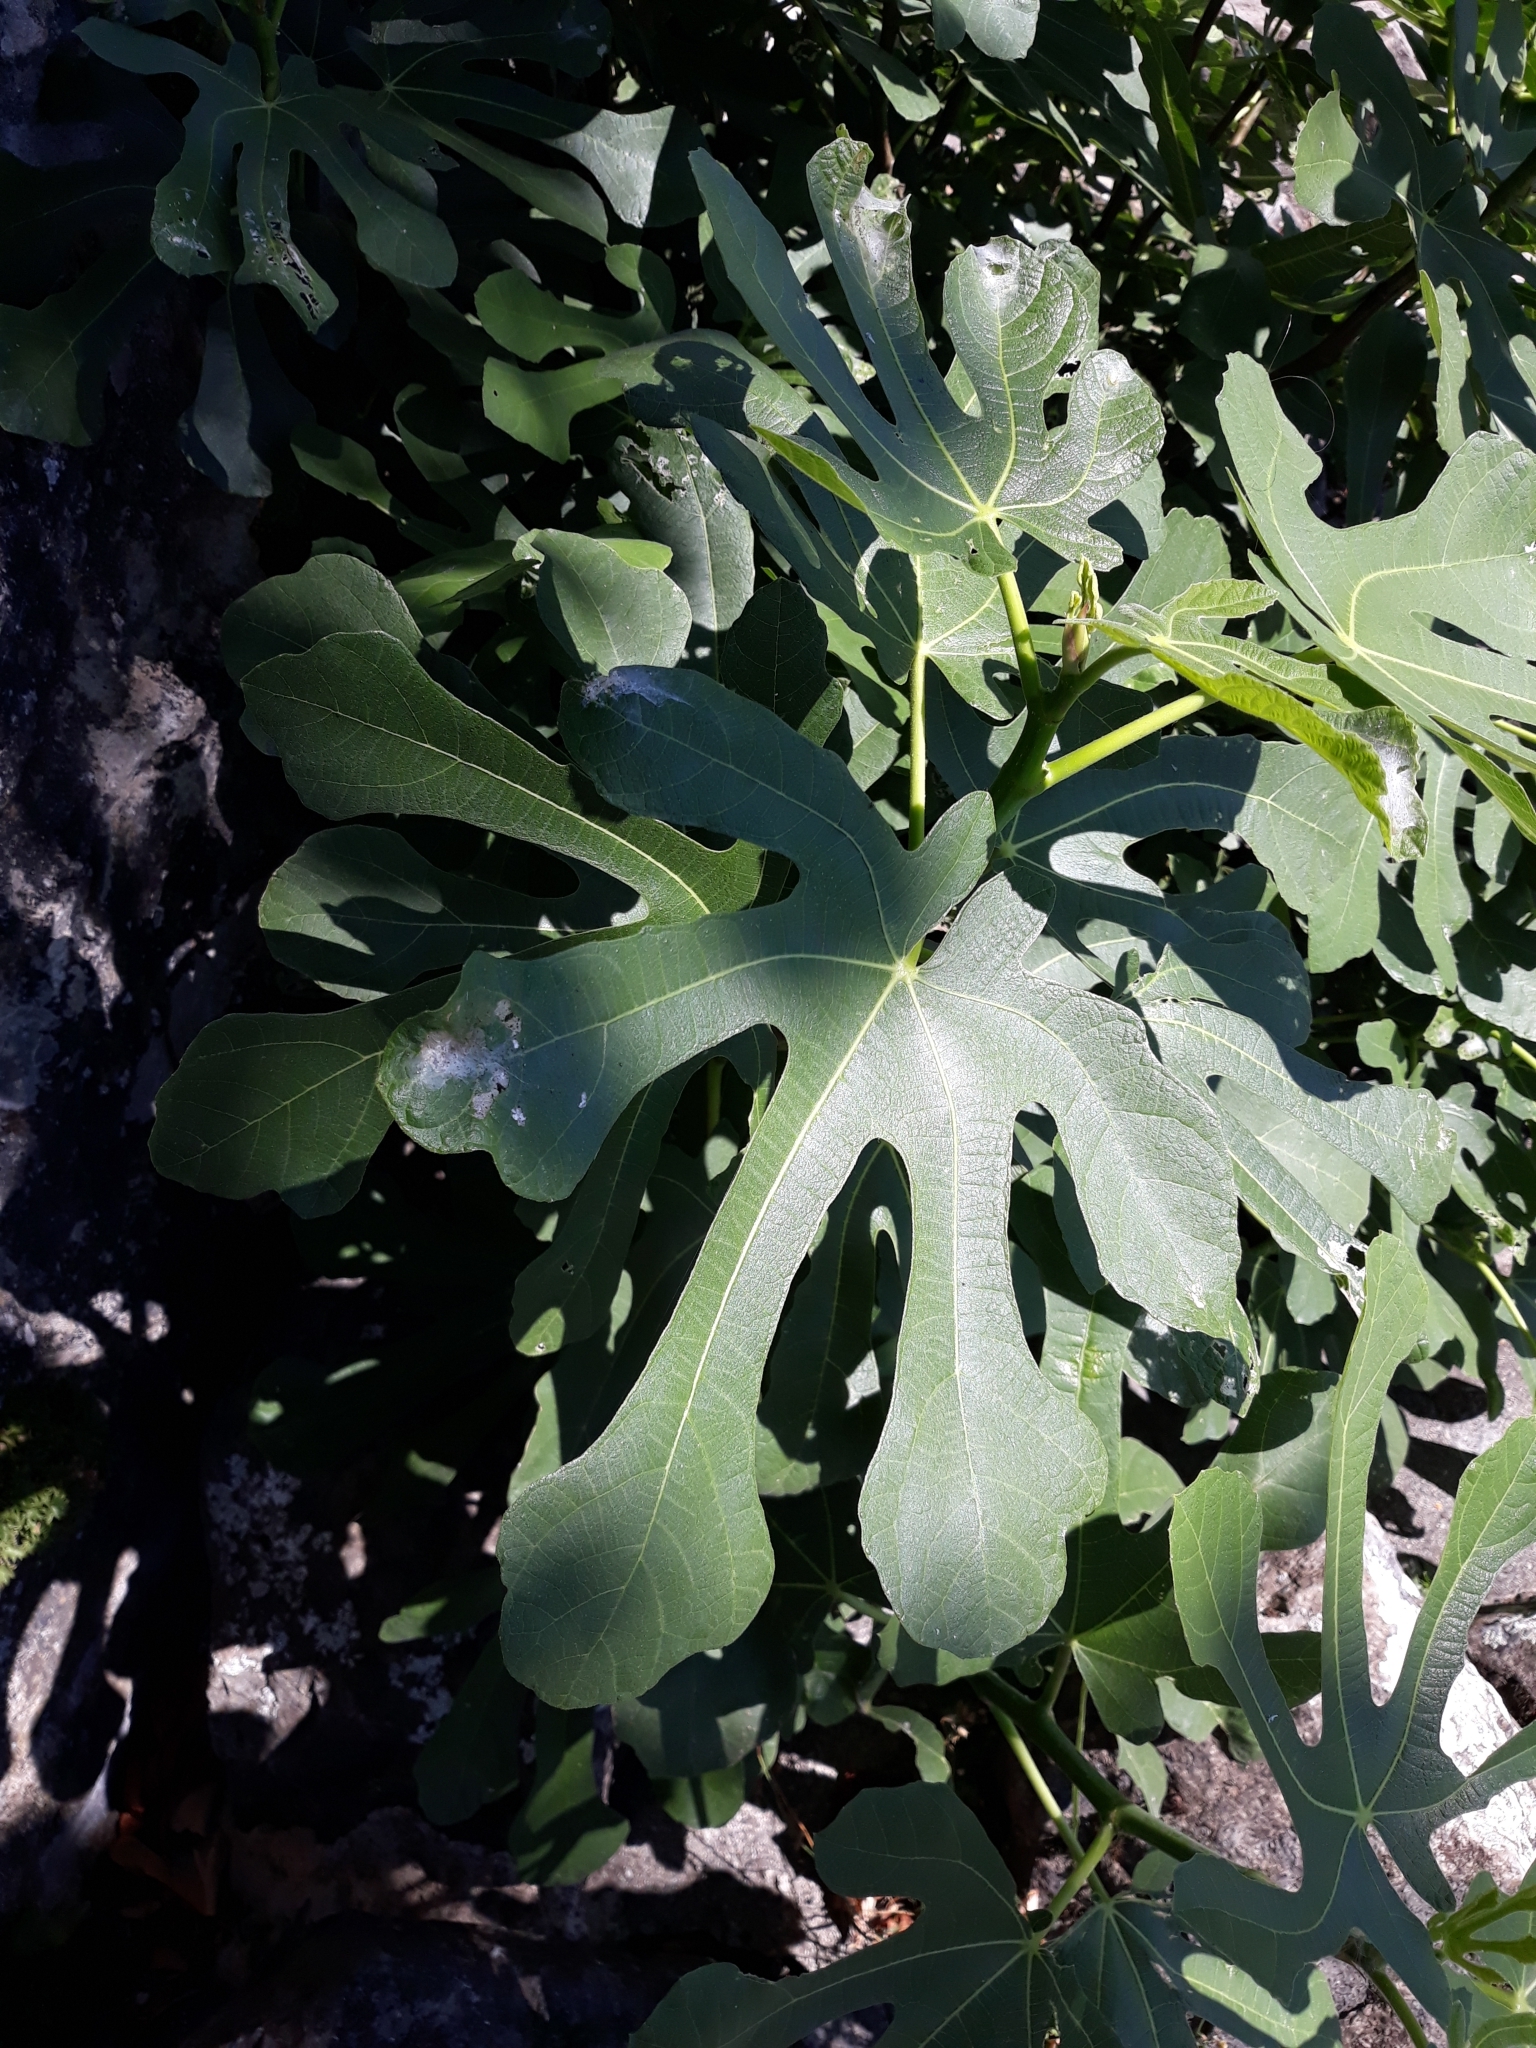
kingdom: Plantae
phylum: Tracheophyta
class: Magnoliopsida
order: Rosales
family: Moraceae
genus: Ficus
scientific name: Ficus carica
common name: Fig
